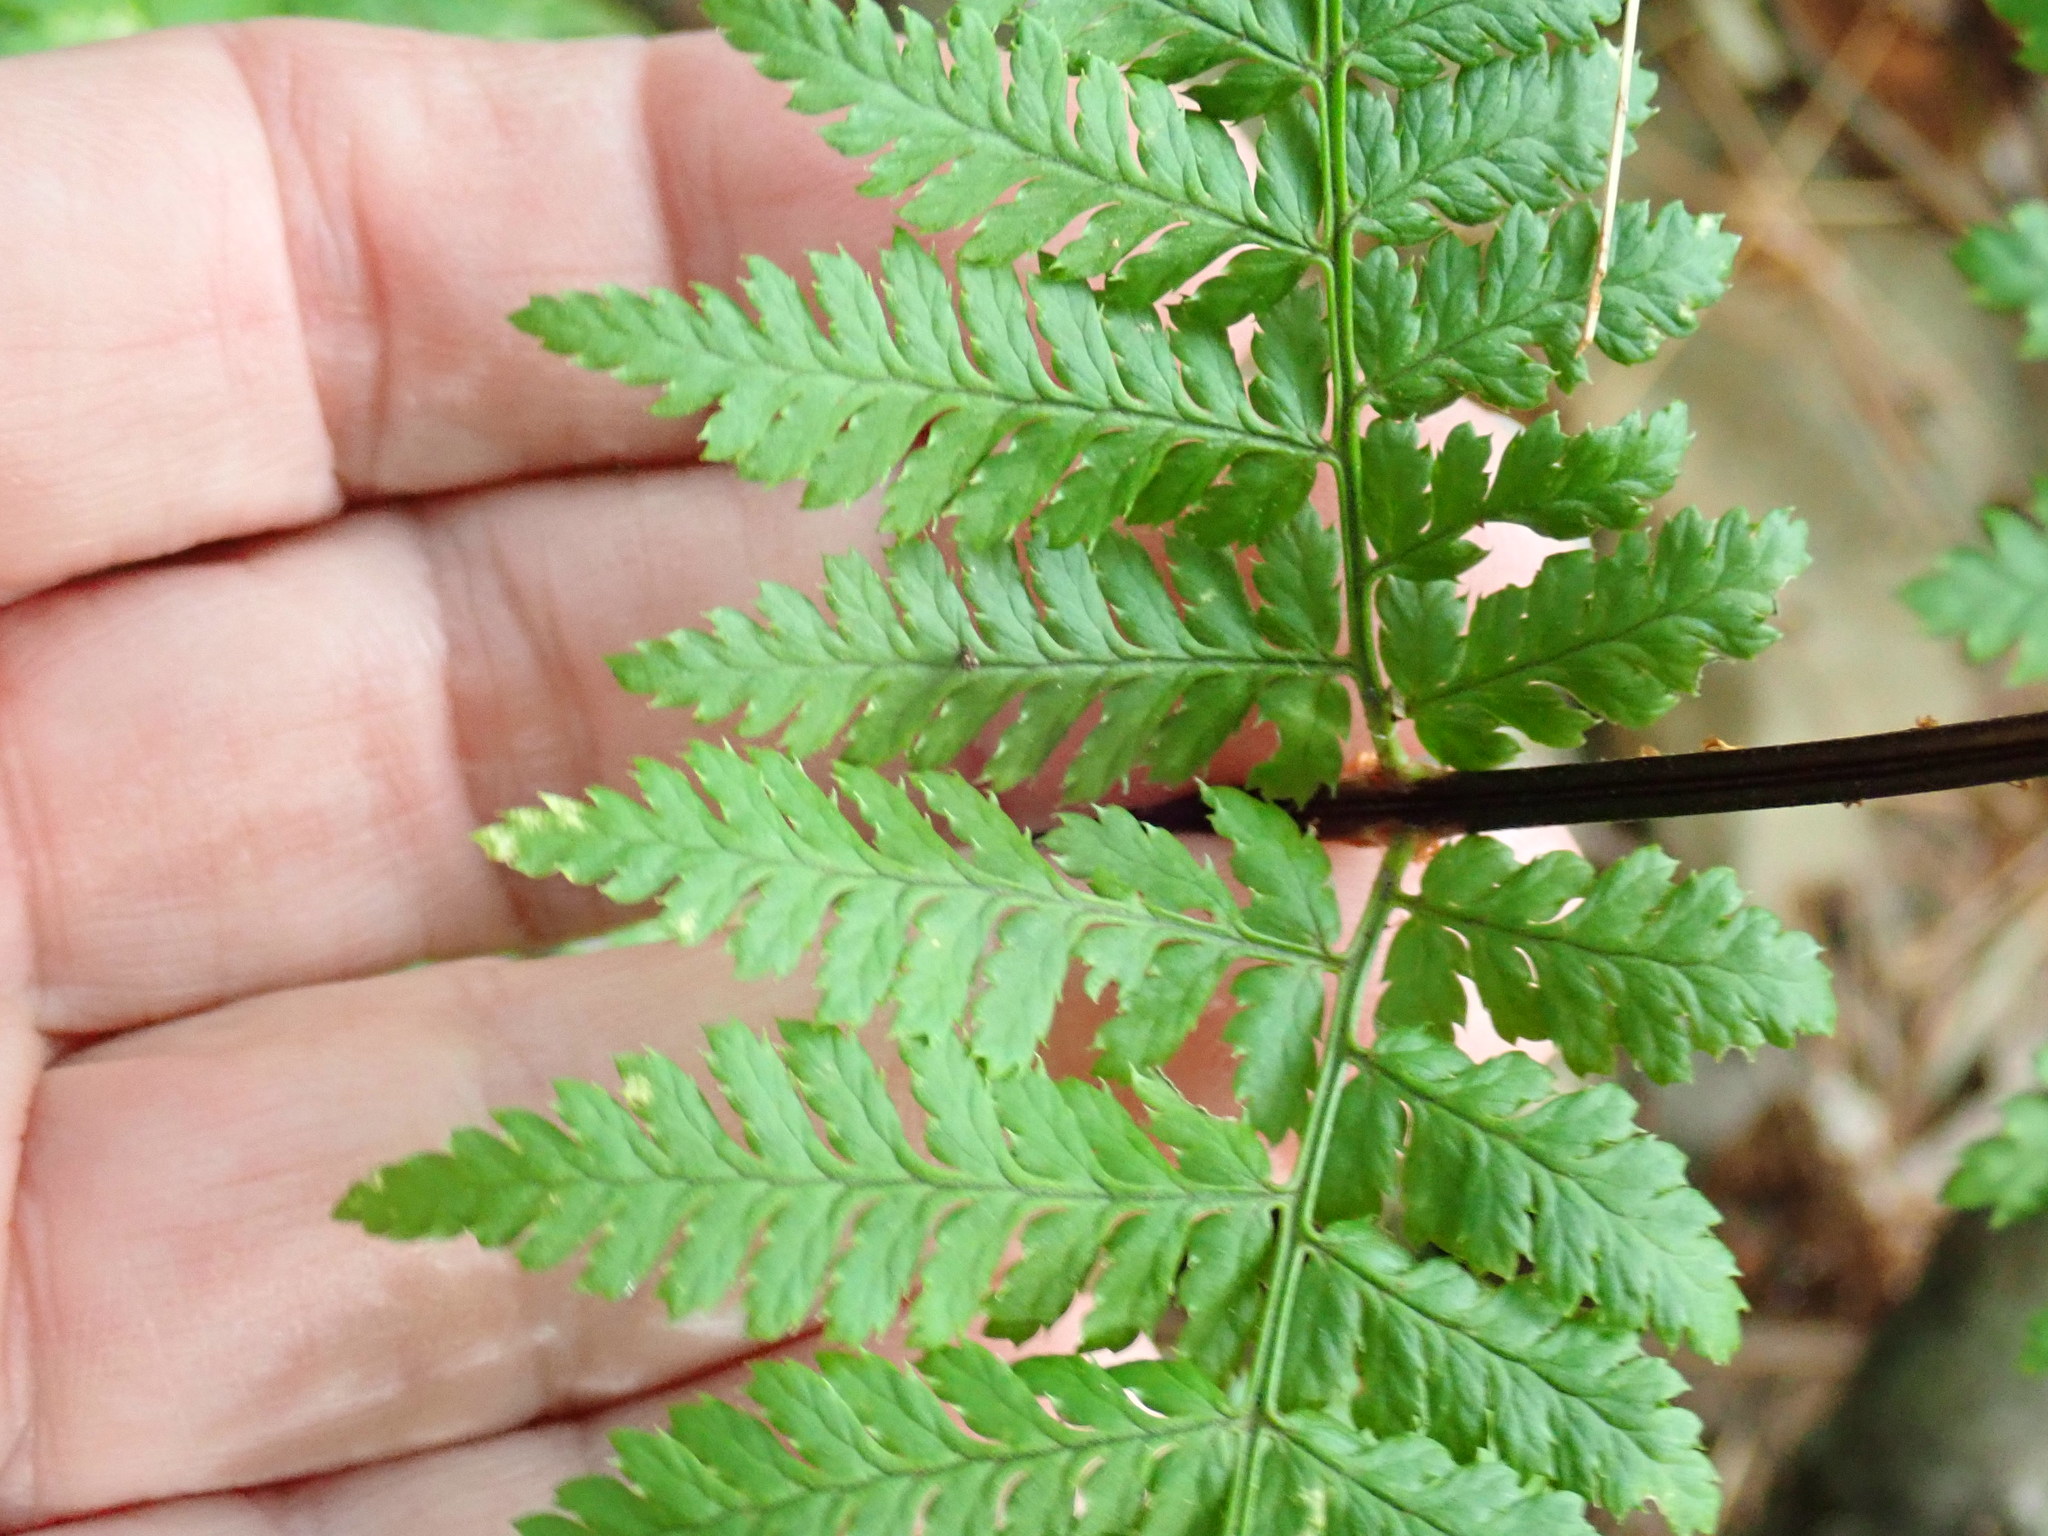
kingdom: Plantae
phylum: Tracheophyta
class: Polypodiopsida
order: Polypodiales
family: Dryopteridaceae
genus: Dryopteris
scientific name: Dryopteris intermedia
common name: Evergreen wood fern
